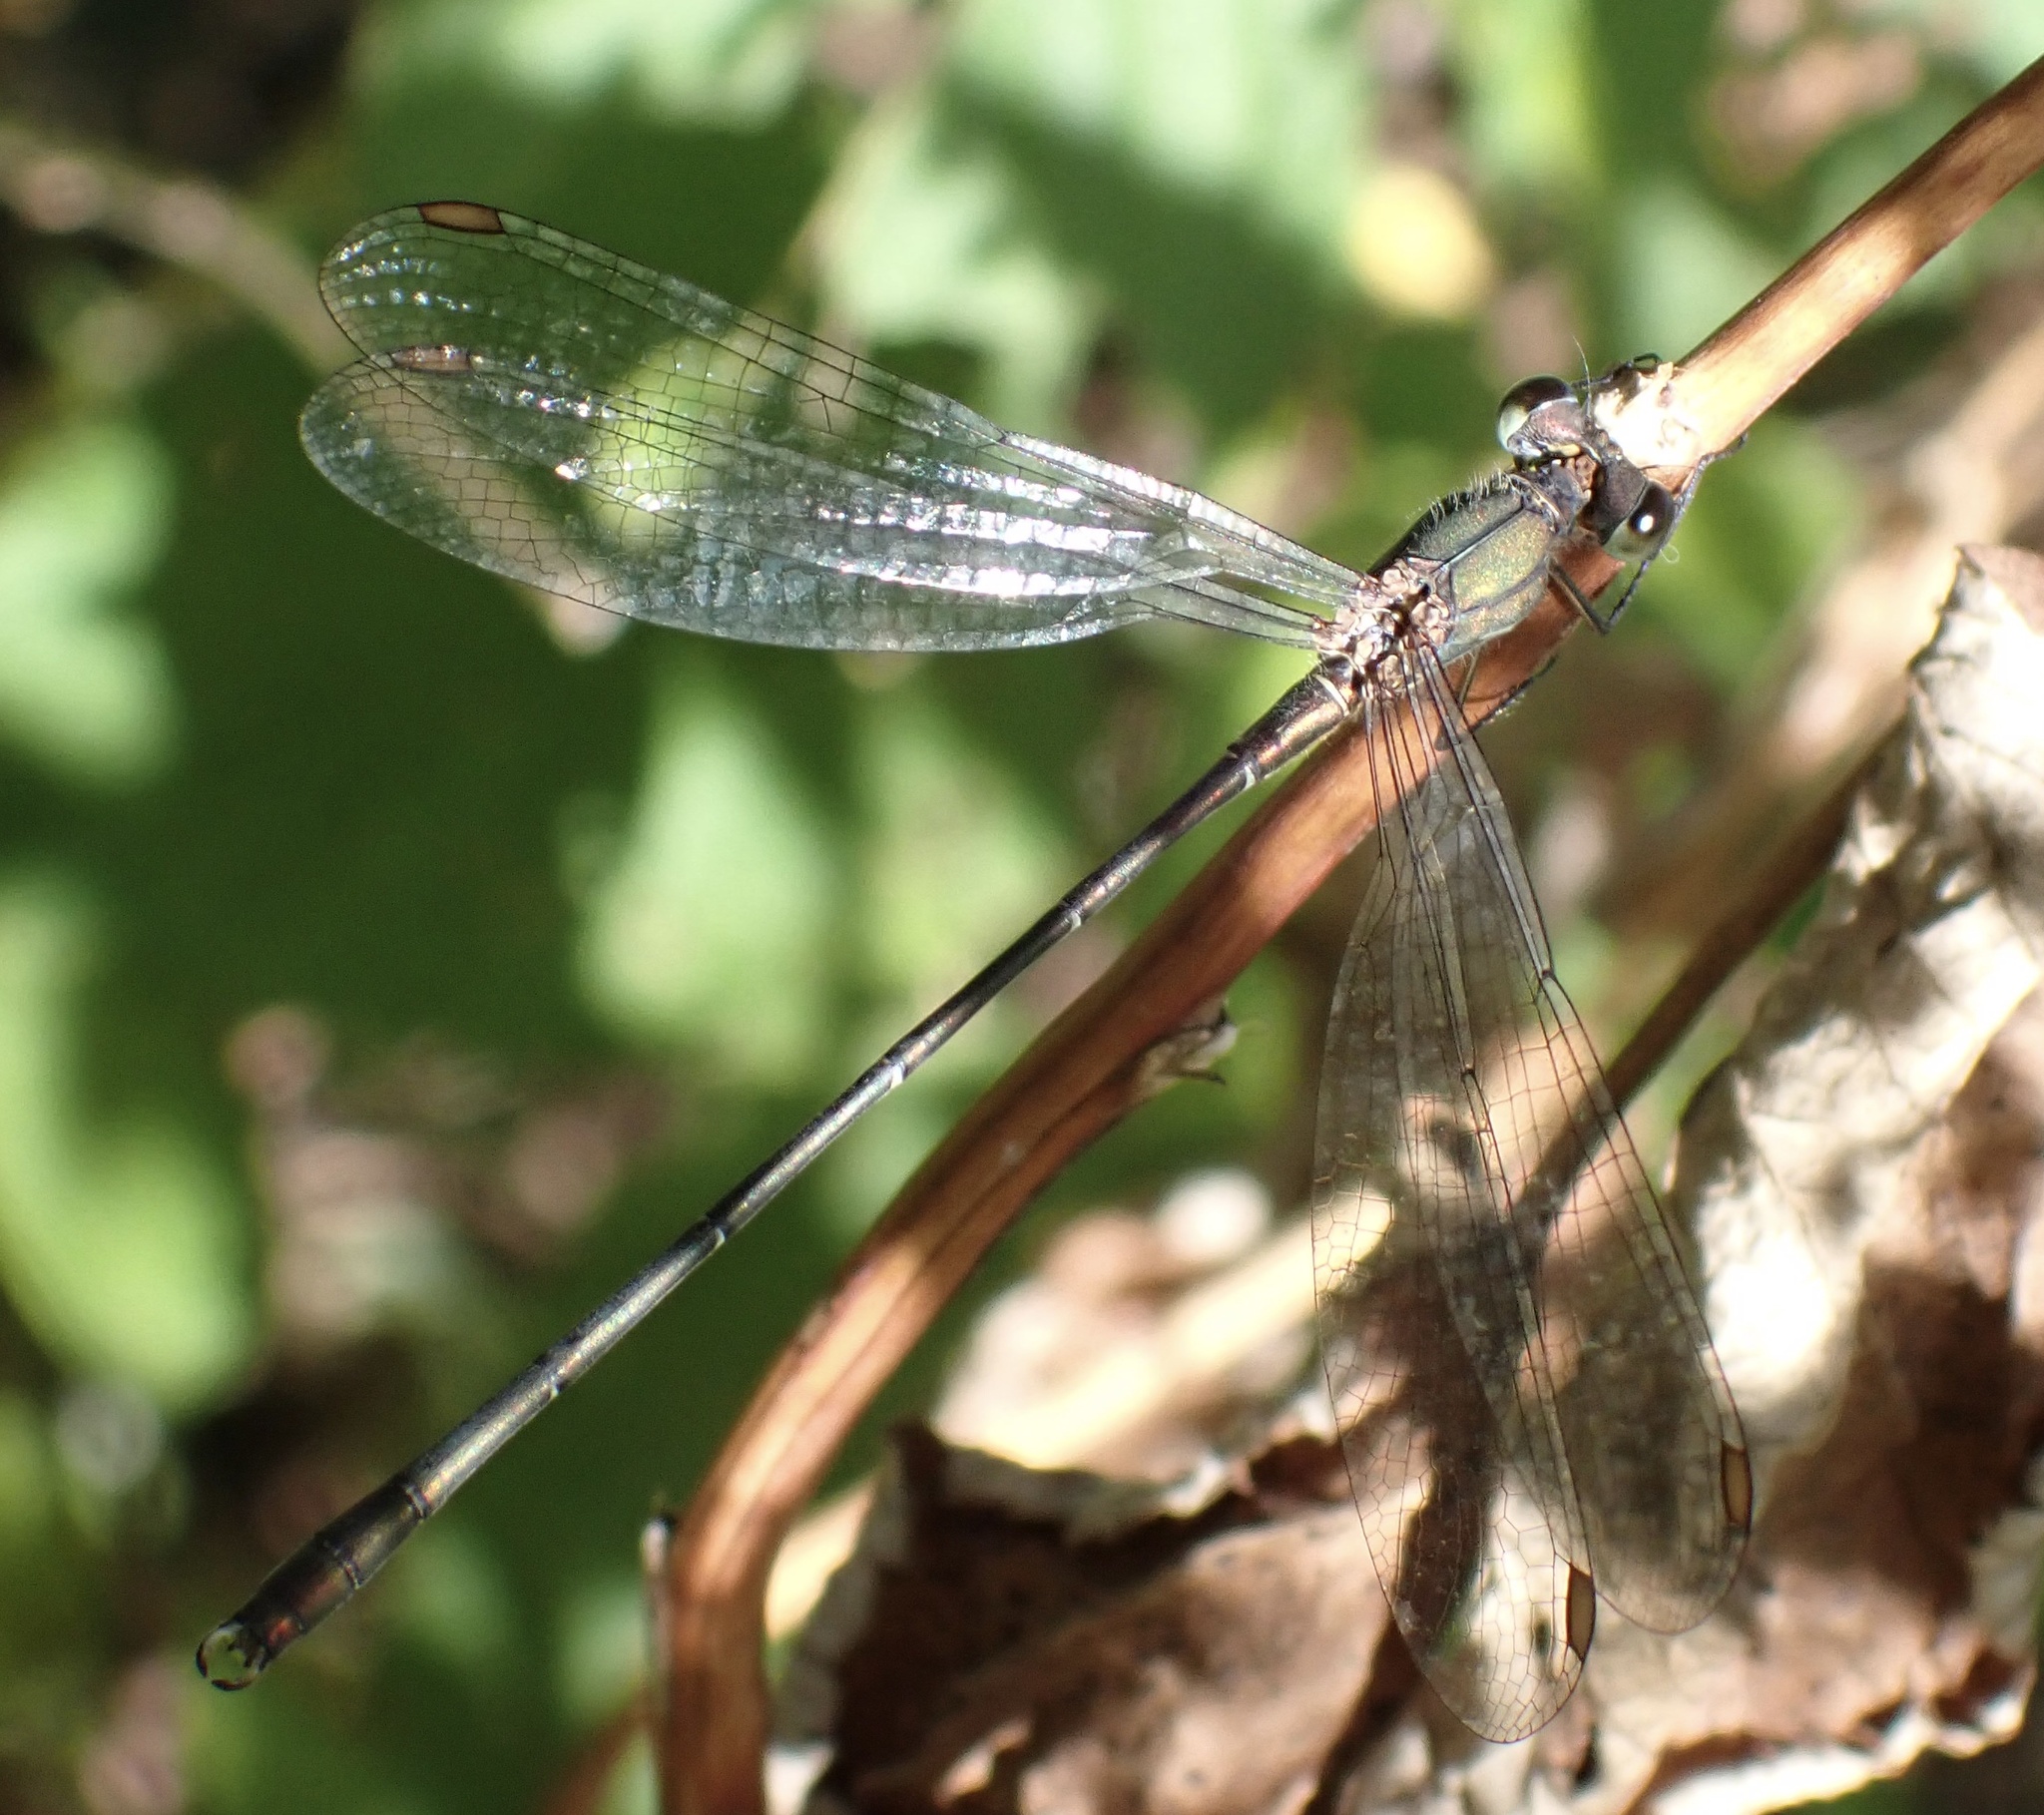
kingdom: Animalia
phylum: Arthropoda
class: Insecta
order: Odonata
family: Lestidae
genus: Chalcolestes
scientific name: Chalcolestes viridis
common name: Green emerald damselfly
